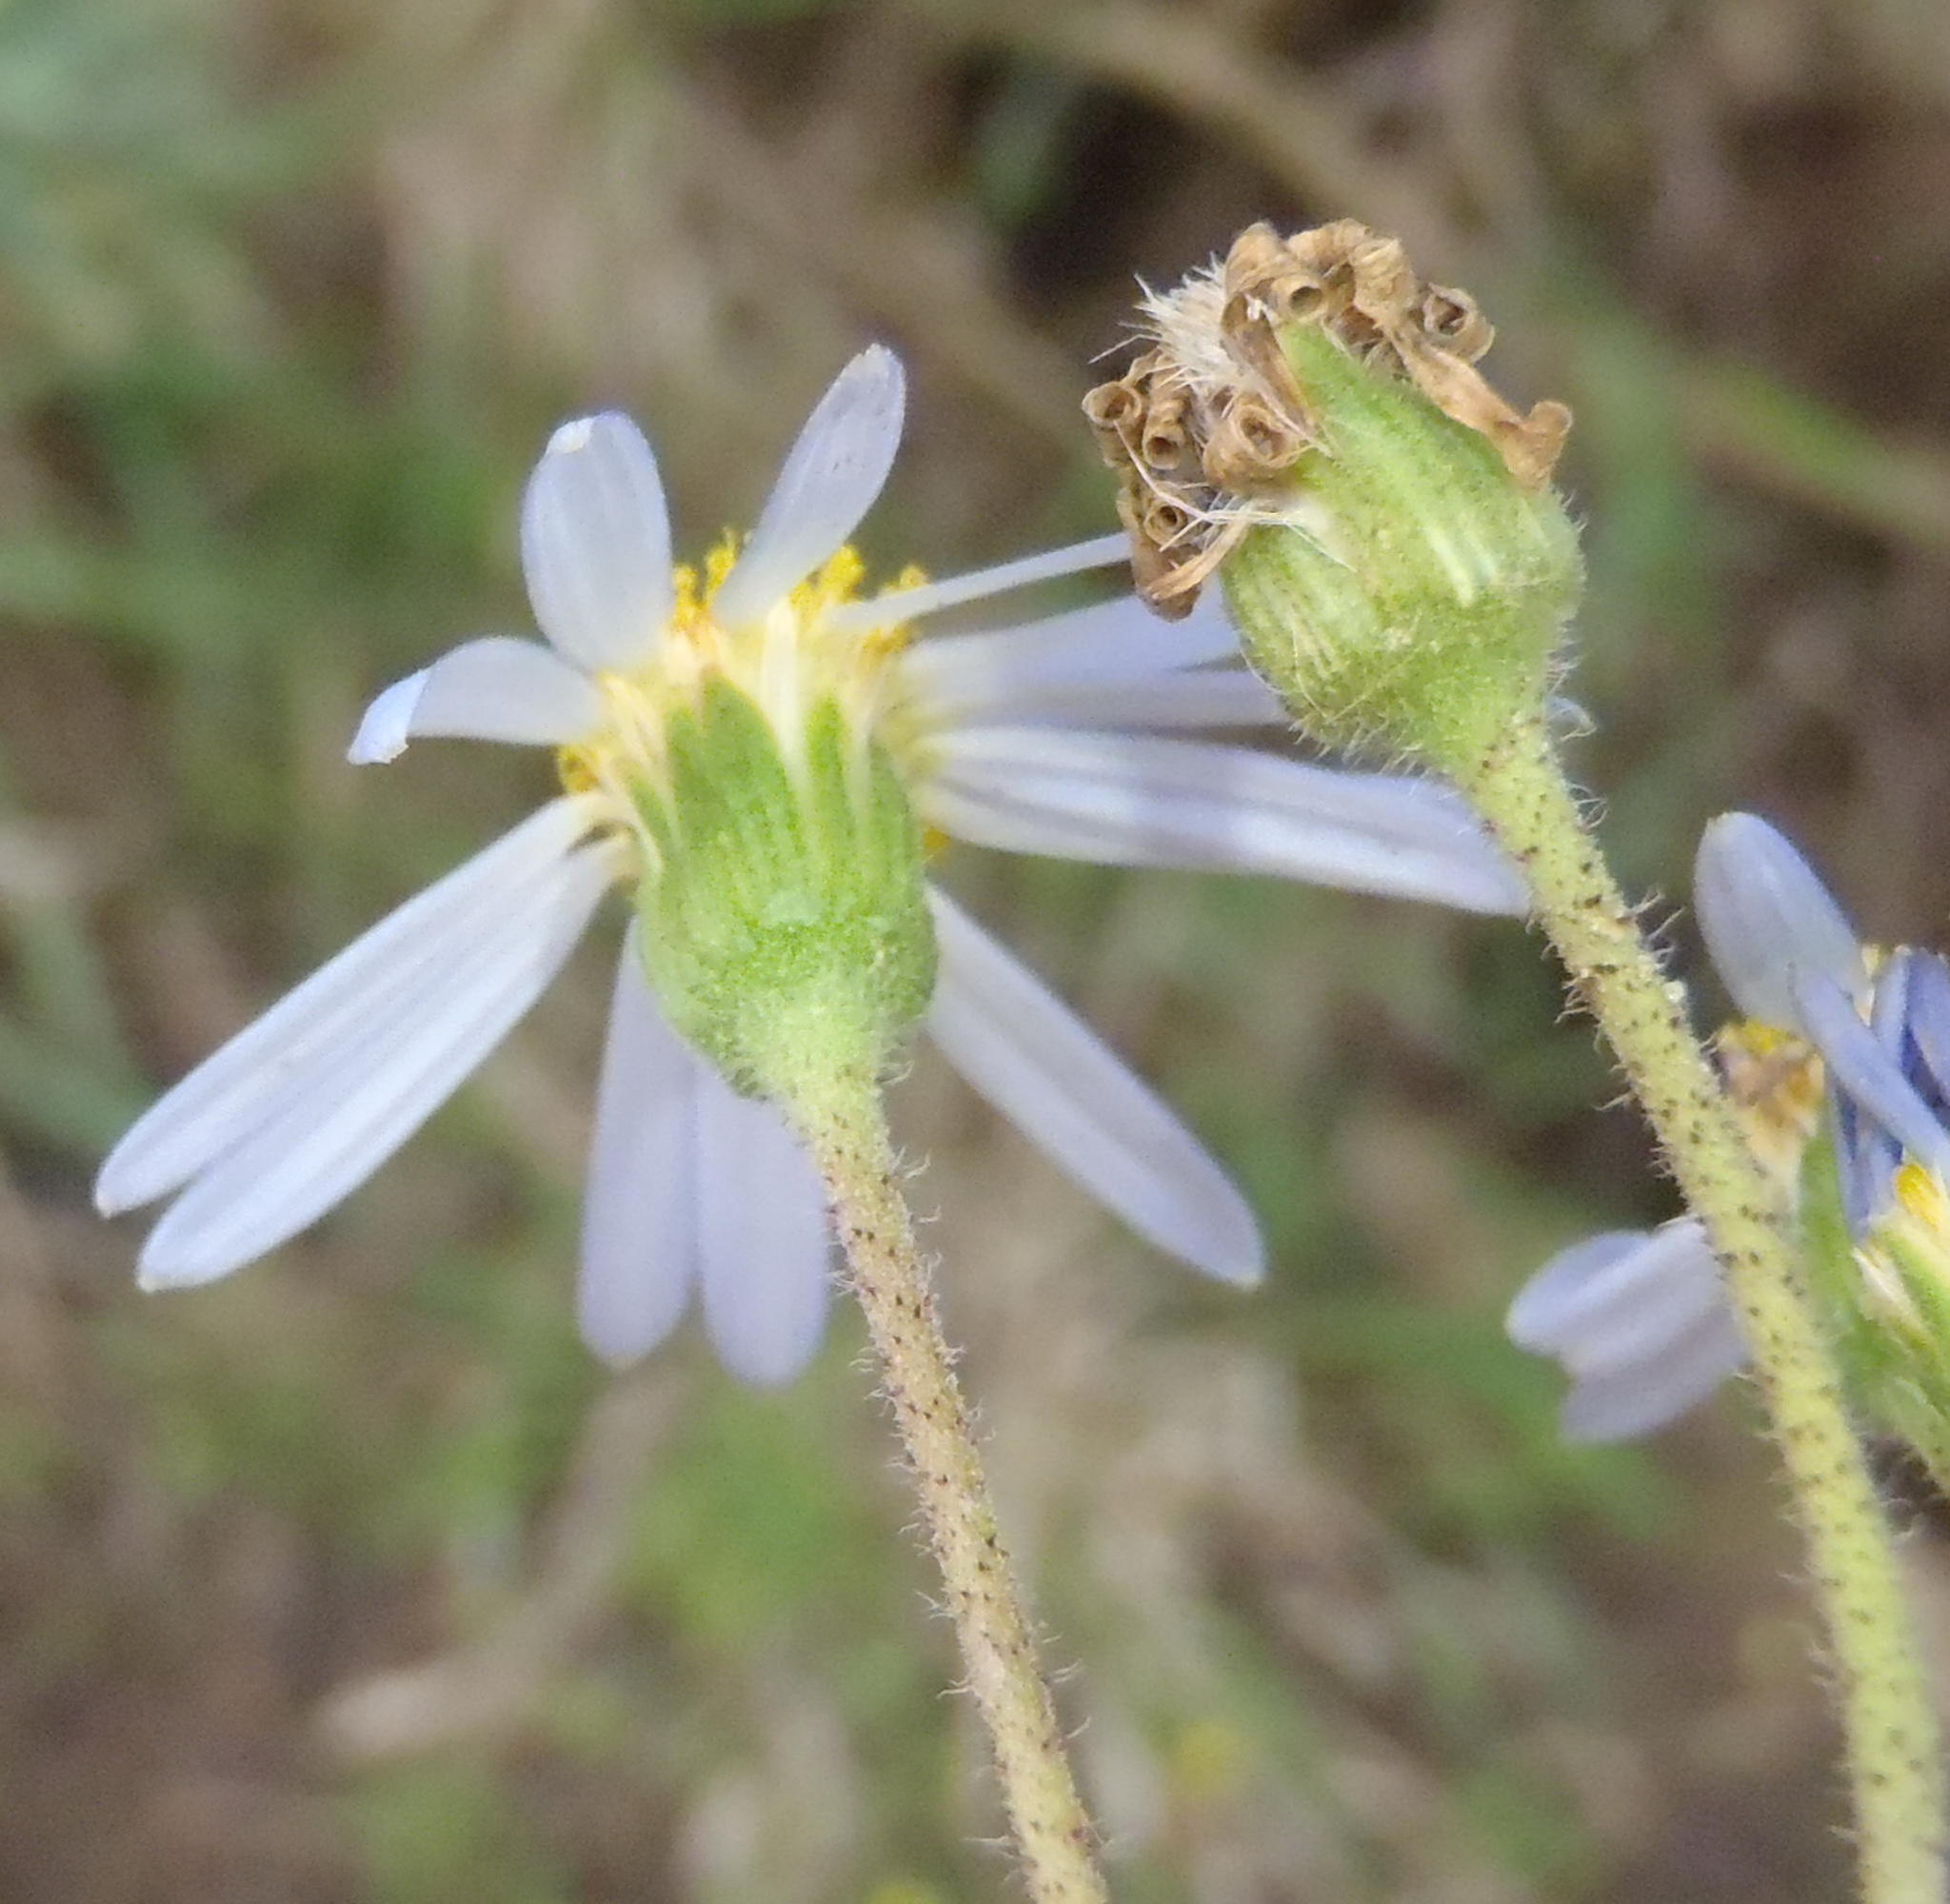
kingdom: Plantae
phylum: Tracheophyta
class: Magnoliopsida
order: Asterales
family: Asteraceae
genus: Felicia
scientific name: Felicia aethiopica
